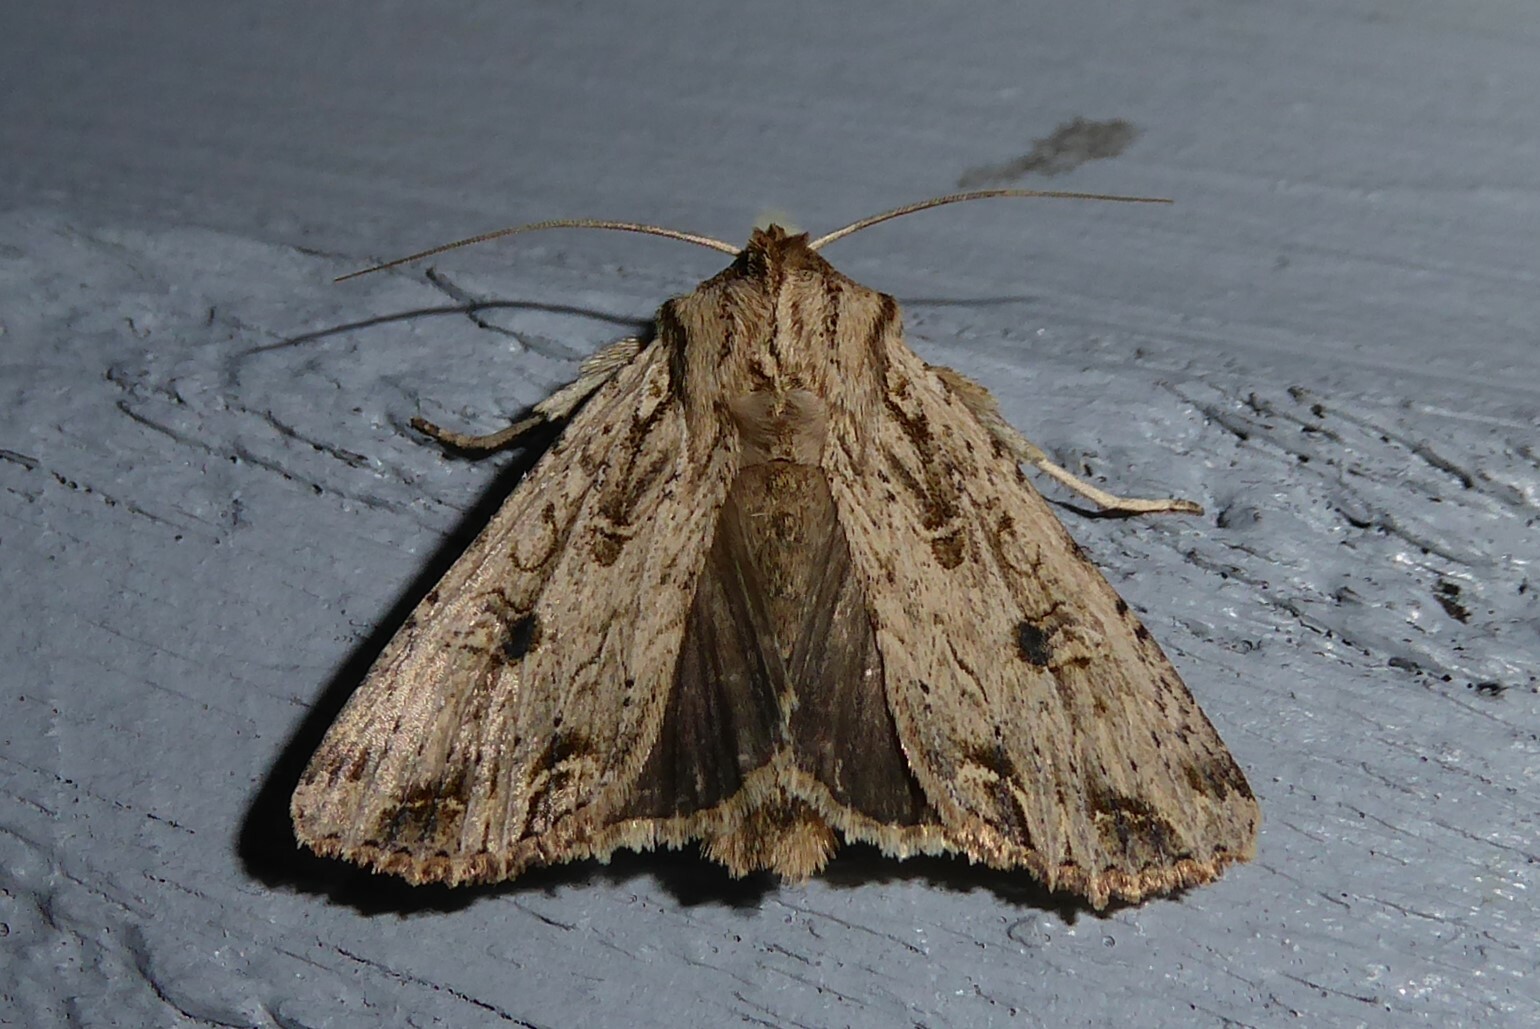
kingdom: Animalia
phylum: Arthropoda
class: Insecta
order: Lepidoptera
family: Noctuidae
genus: Ichneutica
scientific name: Ichneutica lignana
